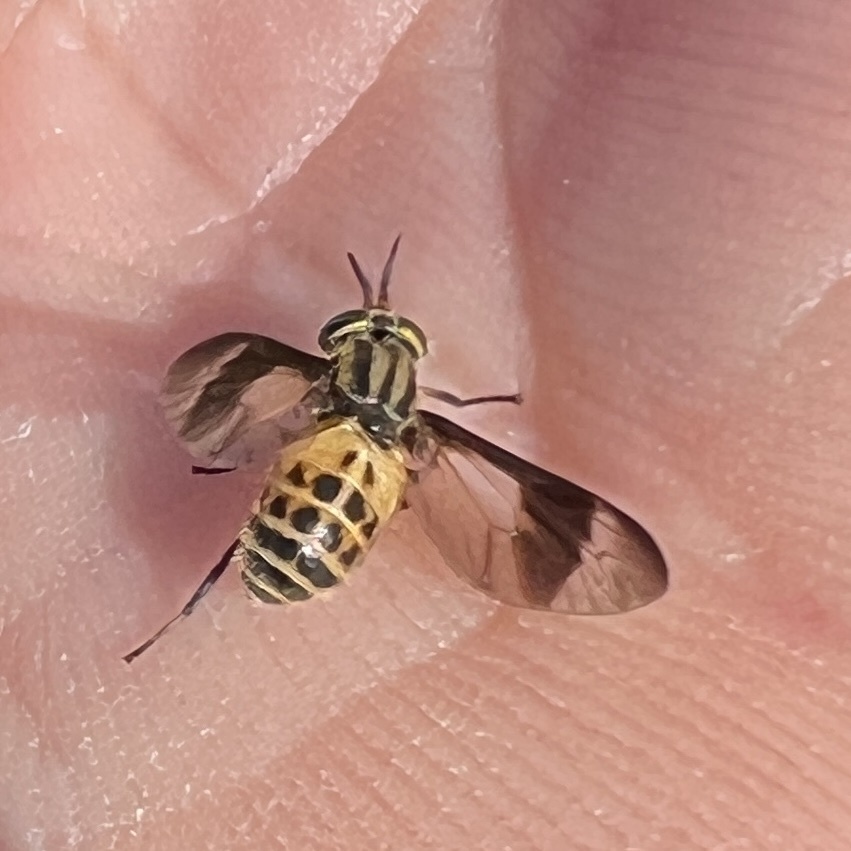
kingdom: Animalia
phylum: Arthropoda
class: Insecta
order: Diptera
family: Tabanidae
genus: Chrysops
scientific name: Chrysops geminatus
